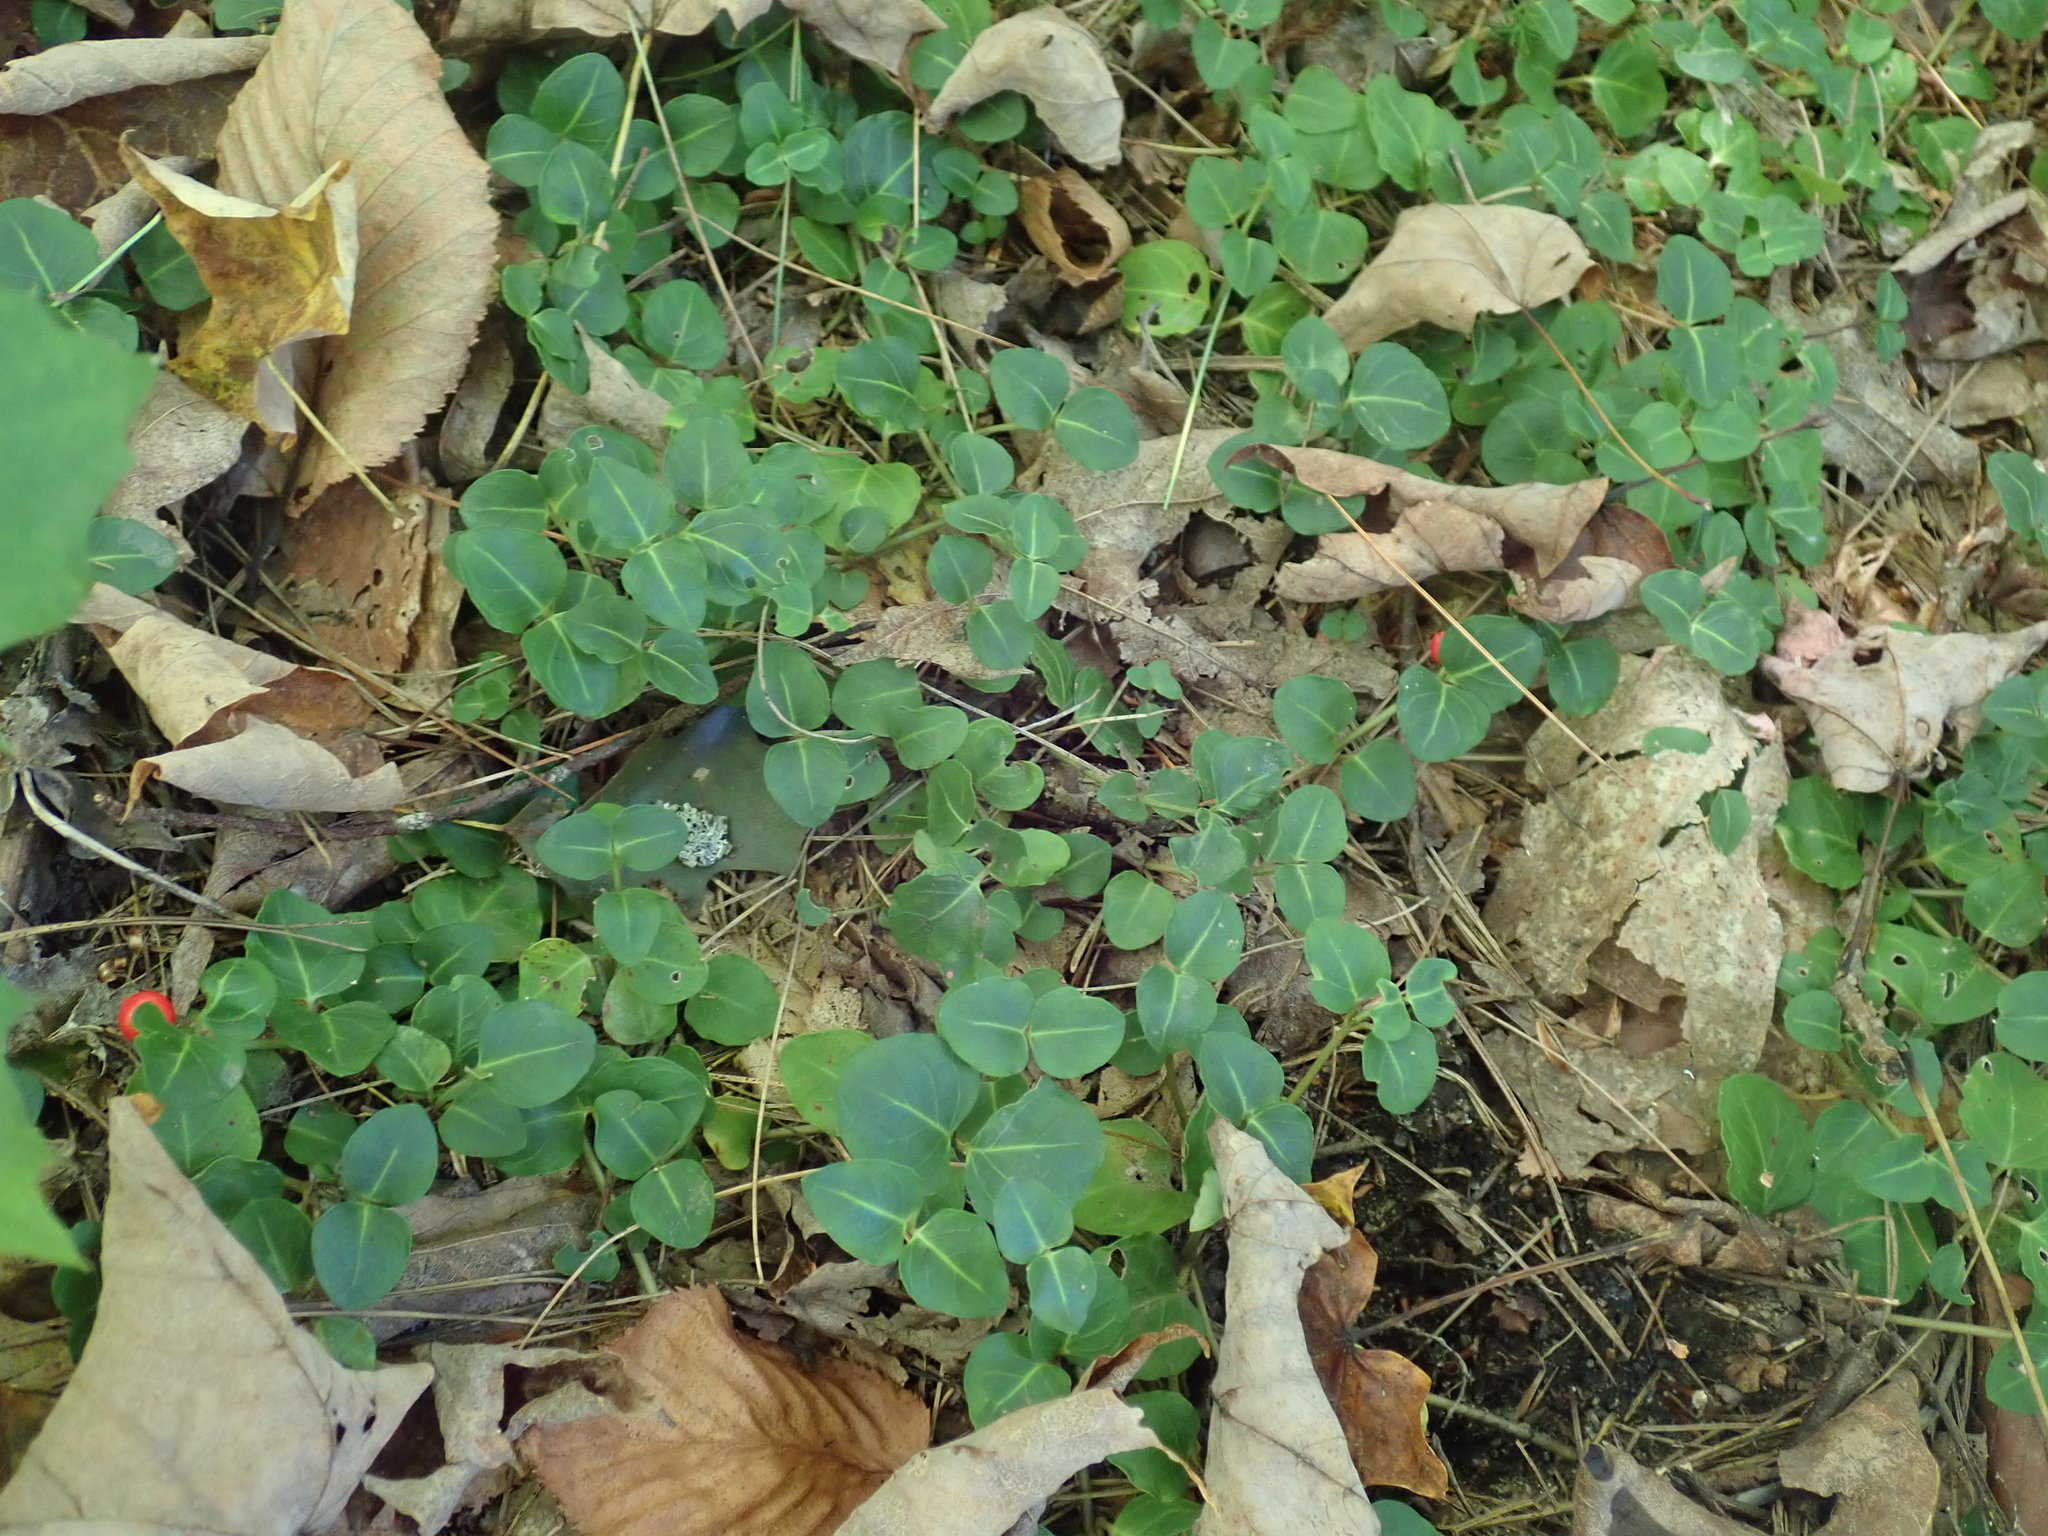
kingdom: Plantae
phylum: Tracheophyta
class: Magnoliopsida
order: Gentianales
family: Rubiaceae
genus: Mitchella
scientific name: Mitchella repens
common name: Partridge-berry
